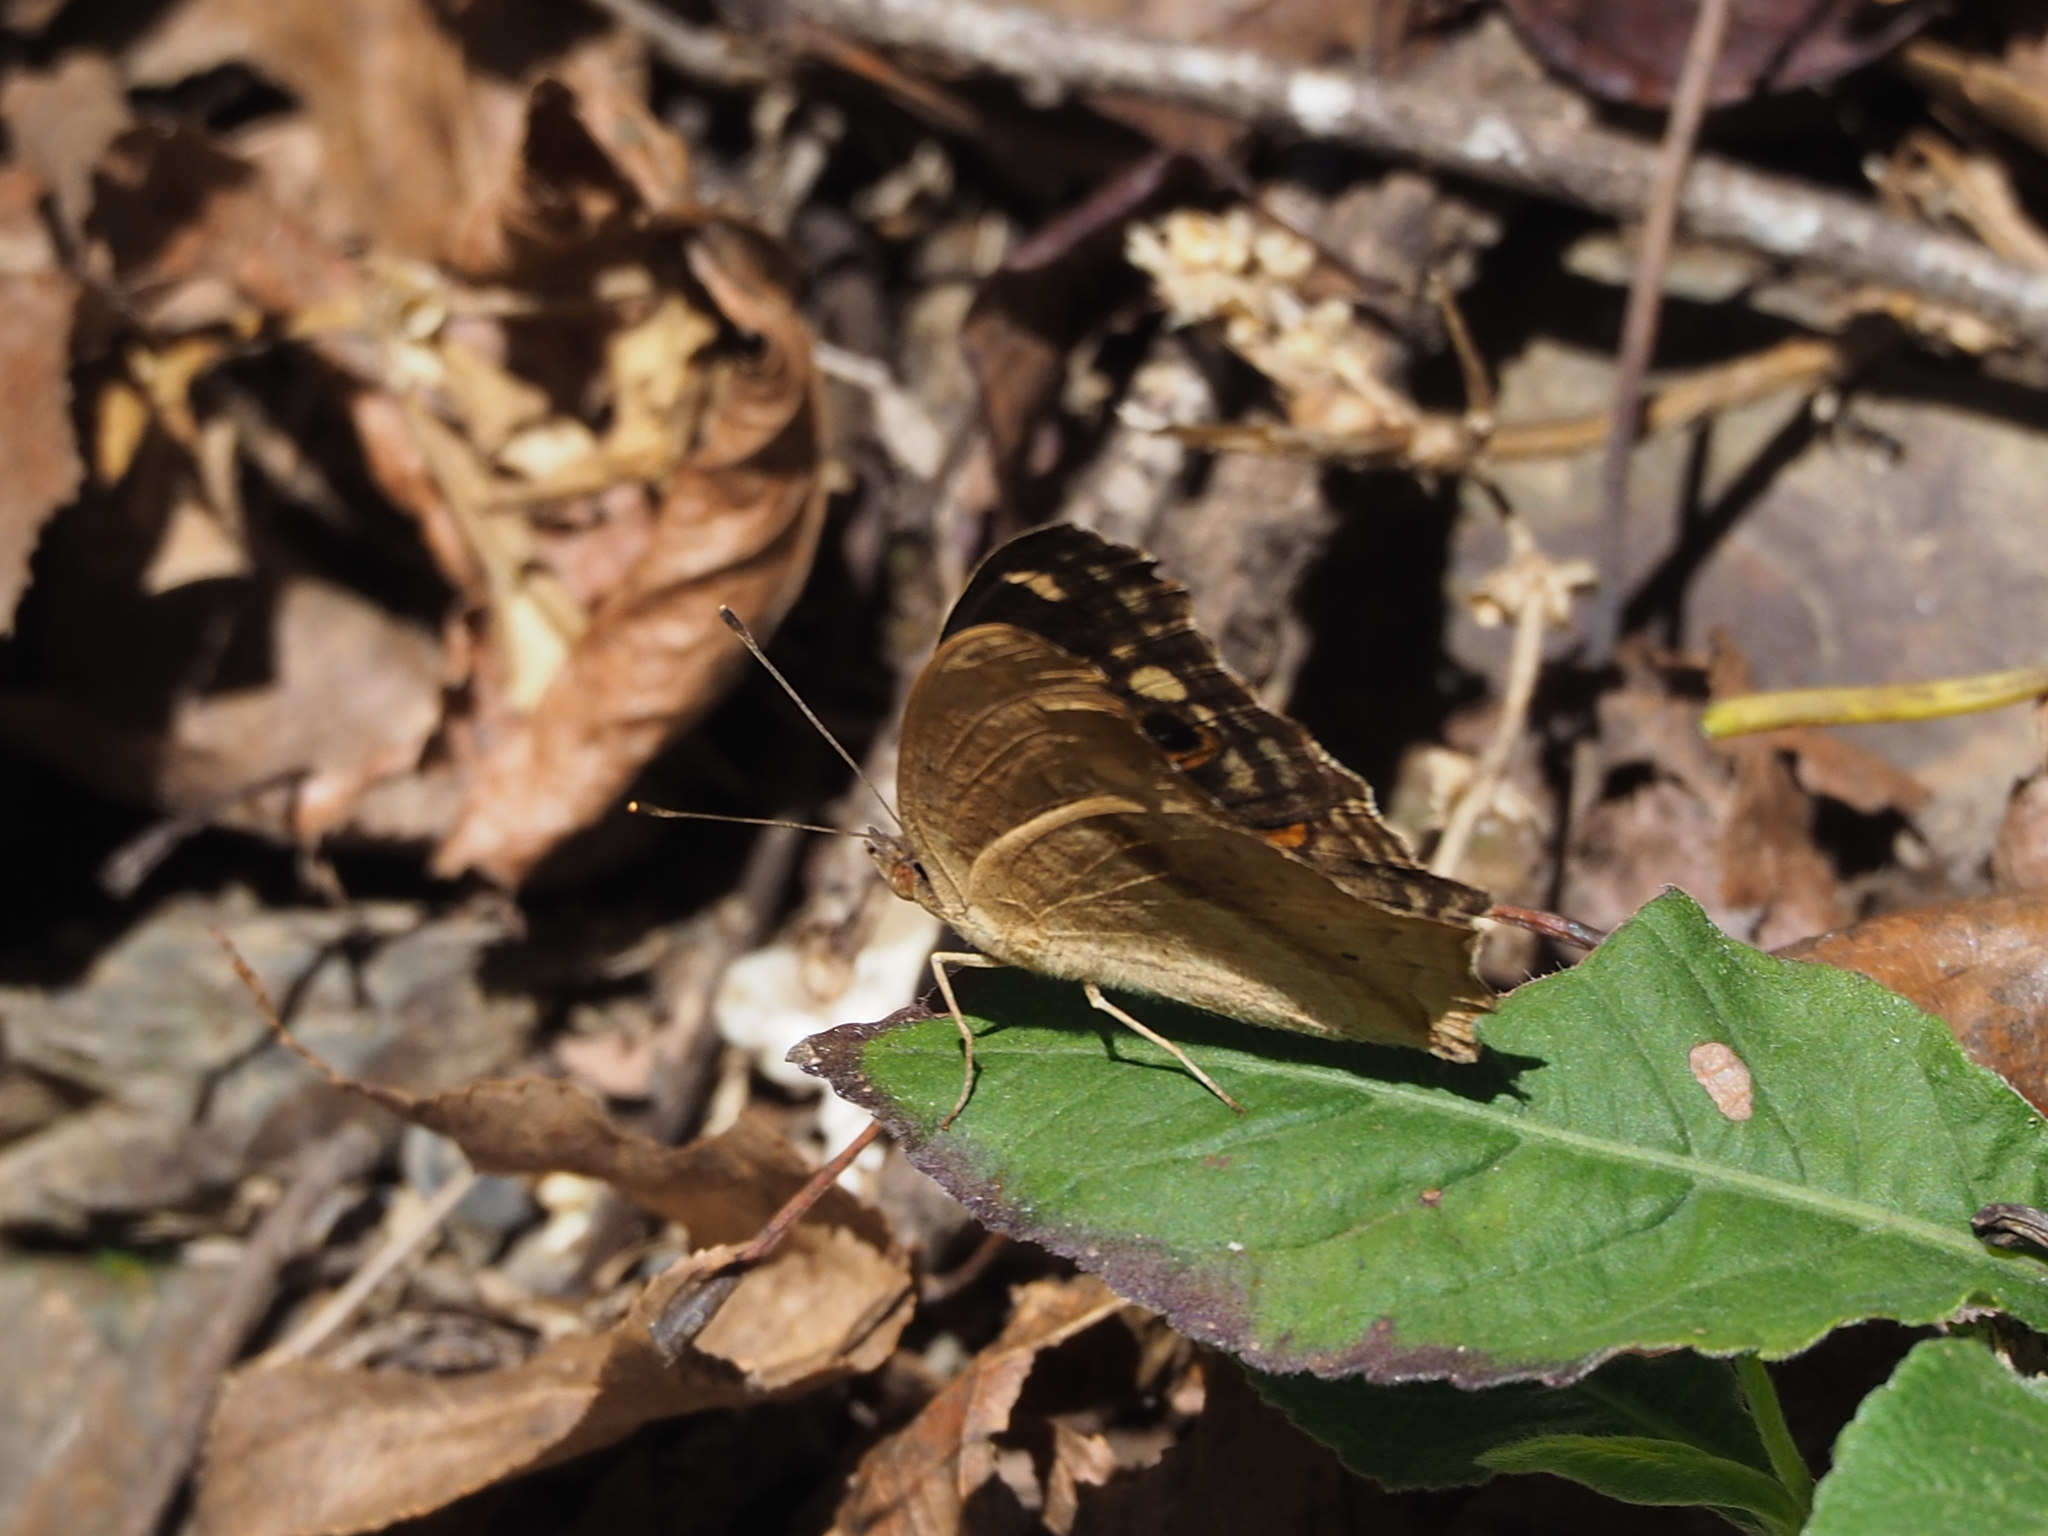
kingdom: Animalia
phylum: Arthropoda
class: Insecta
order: Lepidoptera
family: Nymphalidae
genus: Junonia
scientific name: Junonia lemonias
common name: Lemon pansy
